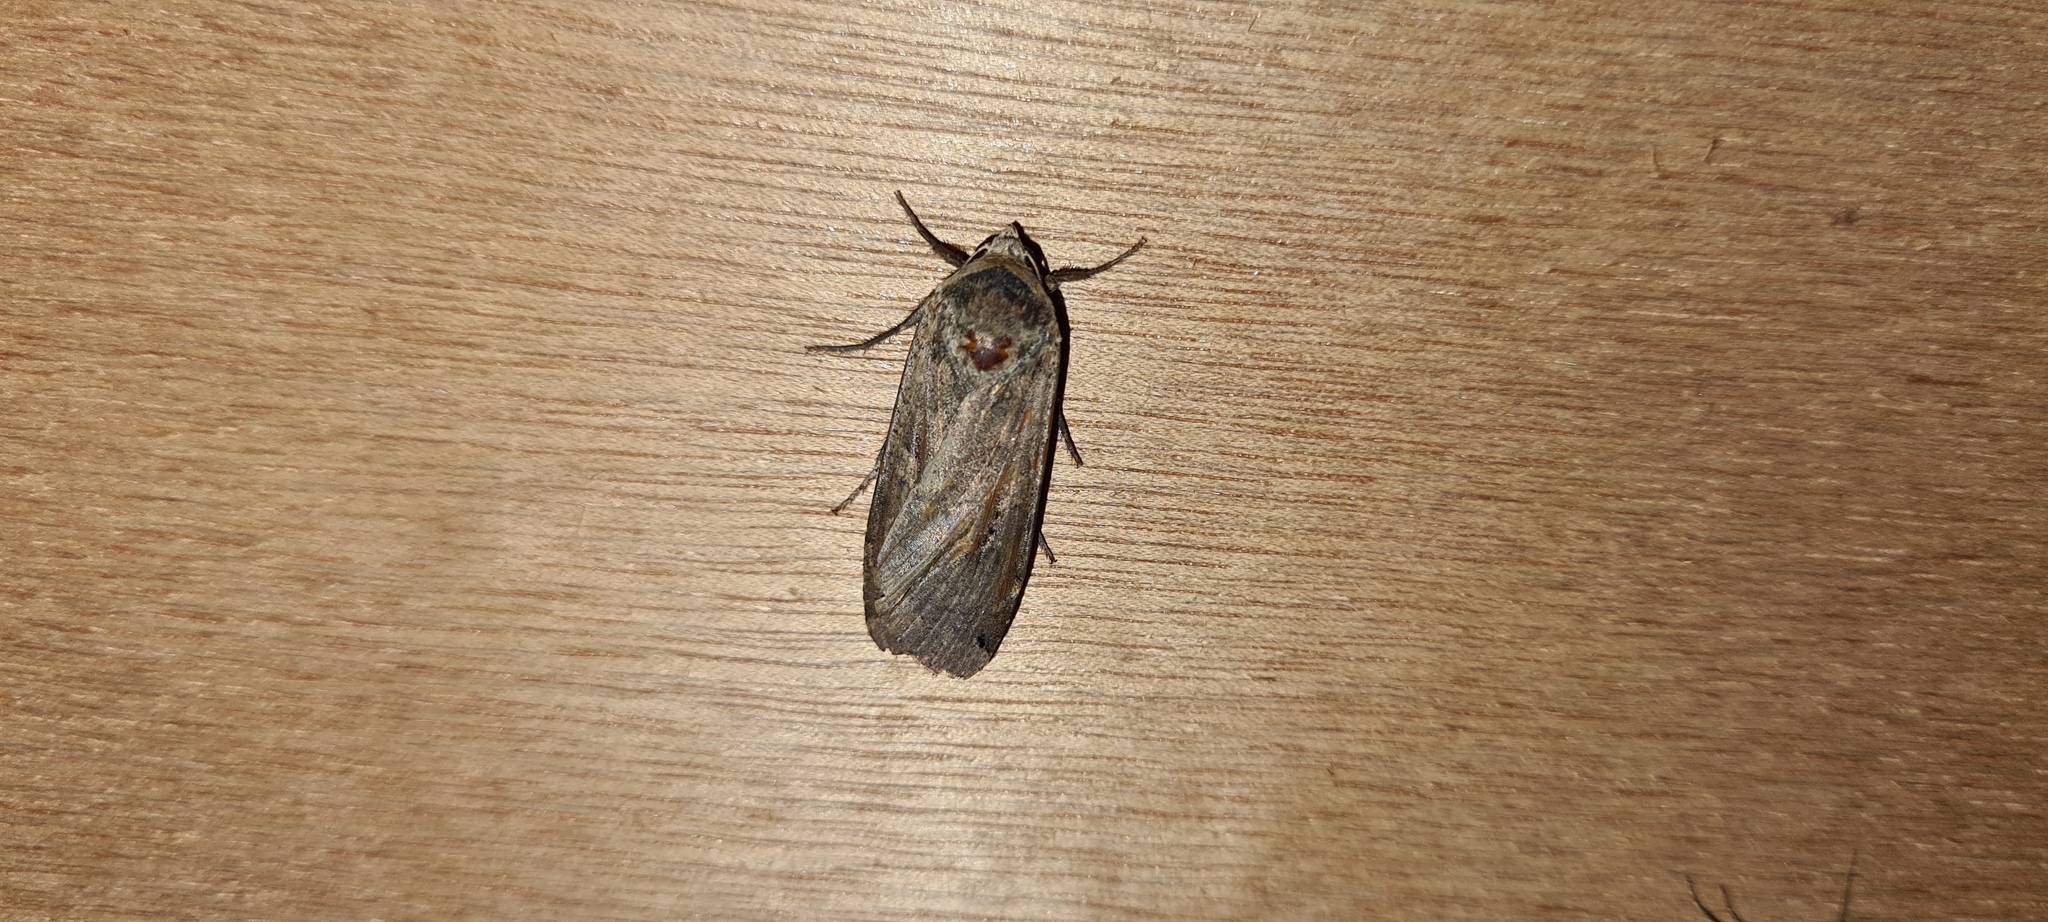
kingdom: Animalia
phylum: Arthropoda
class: Insecta
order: Lepidoptera
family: Noctuidae
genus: Noctua
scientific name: Noctua pronuba
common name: Large yellow underwing
